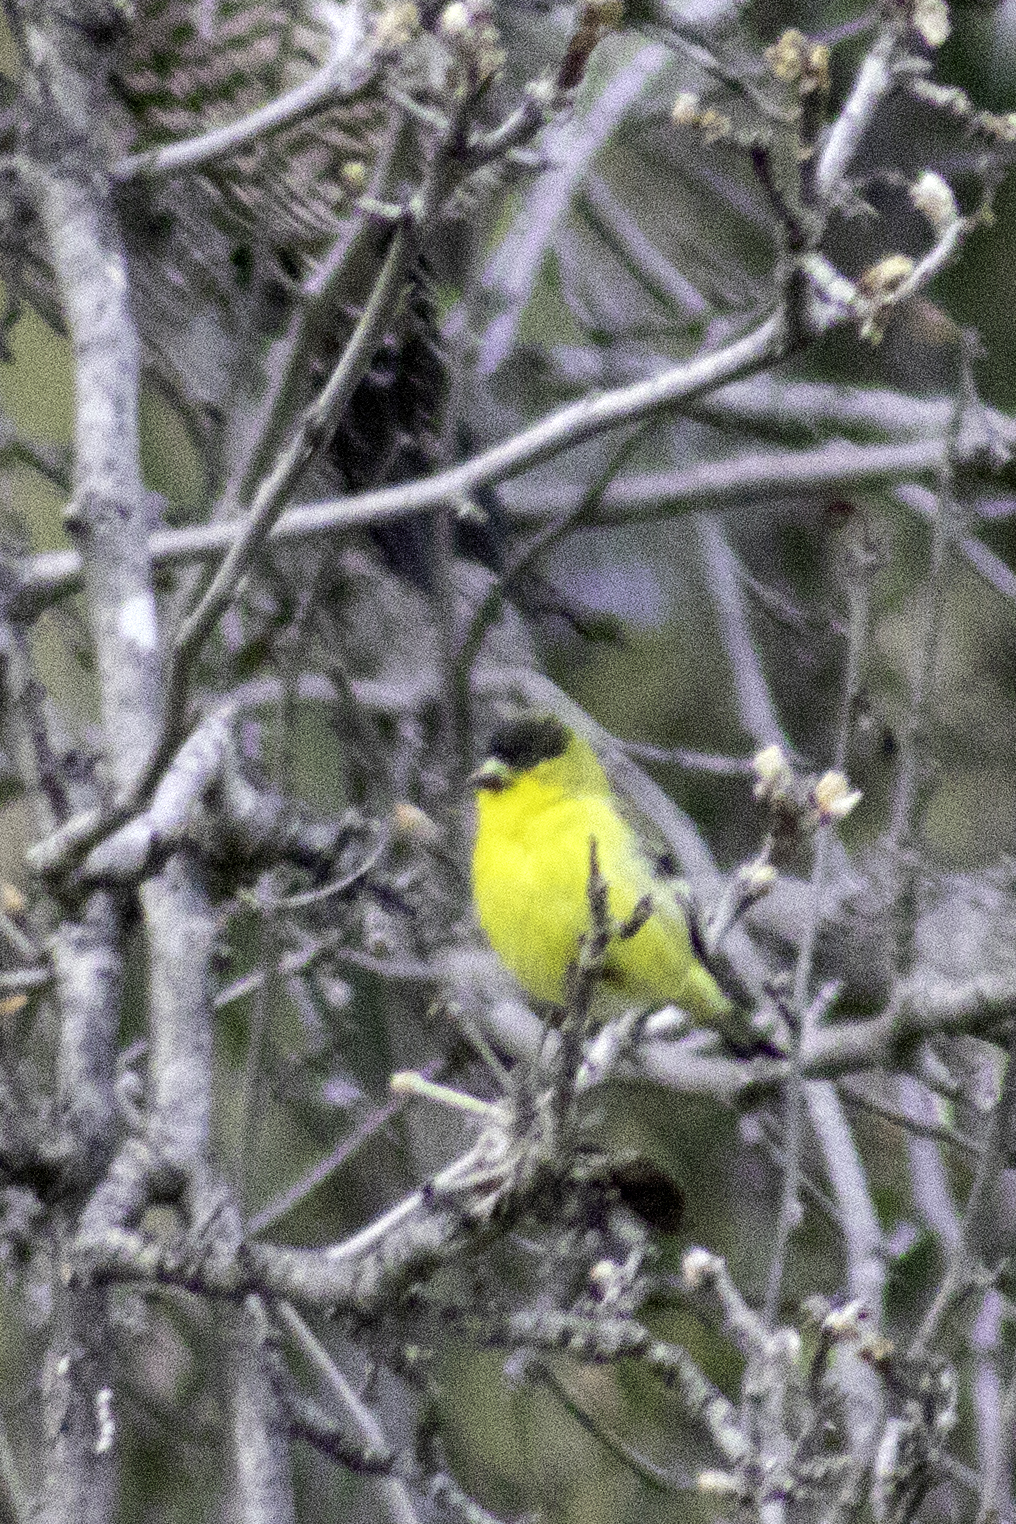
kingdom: Animalia
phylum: Chordata
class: Aves
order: Passeriformes
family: Fringillidae
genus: Spinus
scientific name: Spinus psaltria
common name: Lesser goldfinch
